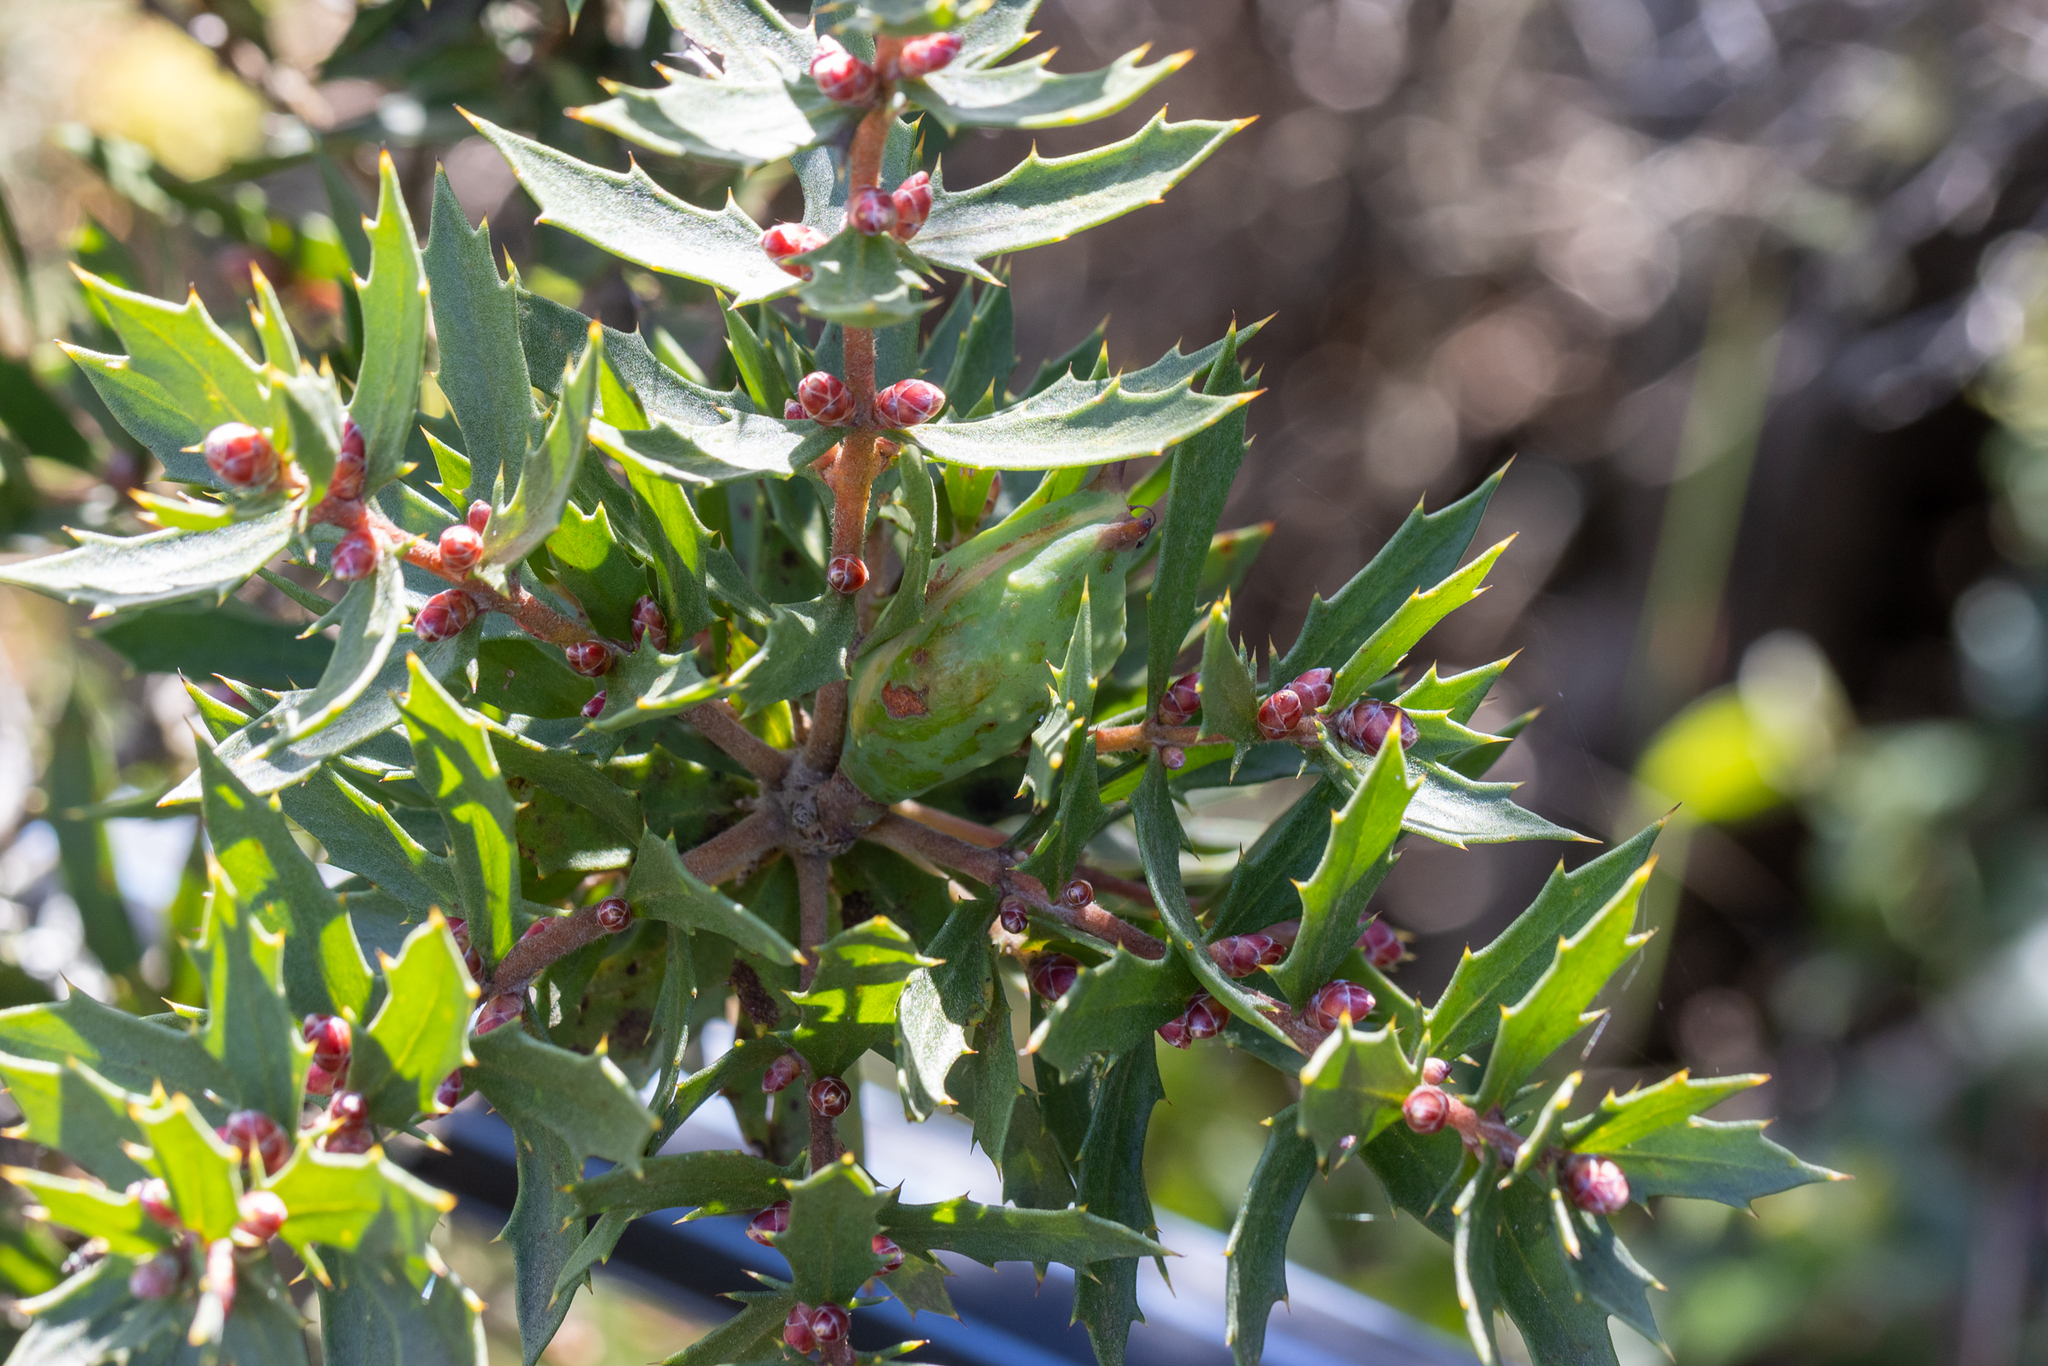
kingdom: Plantae
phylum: Tracheophyta
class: Magnoliopsida
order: Proteales
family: Proteaceae
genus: Hakea
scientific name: Hakea florida
